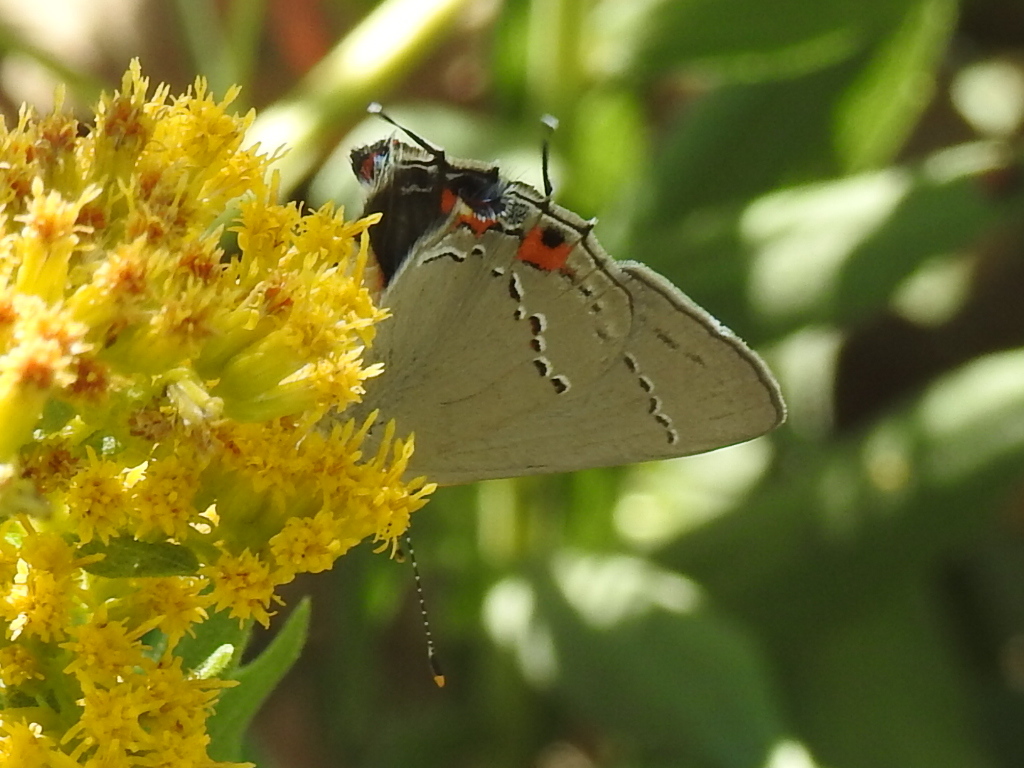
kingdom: Animalia
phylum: Arthropoda
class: Insecta
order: Lepidoptera
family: Lycaenidae
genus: Strymon
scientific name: Strymon melinus
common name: Gray hairstreak
